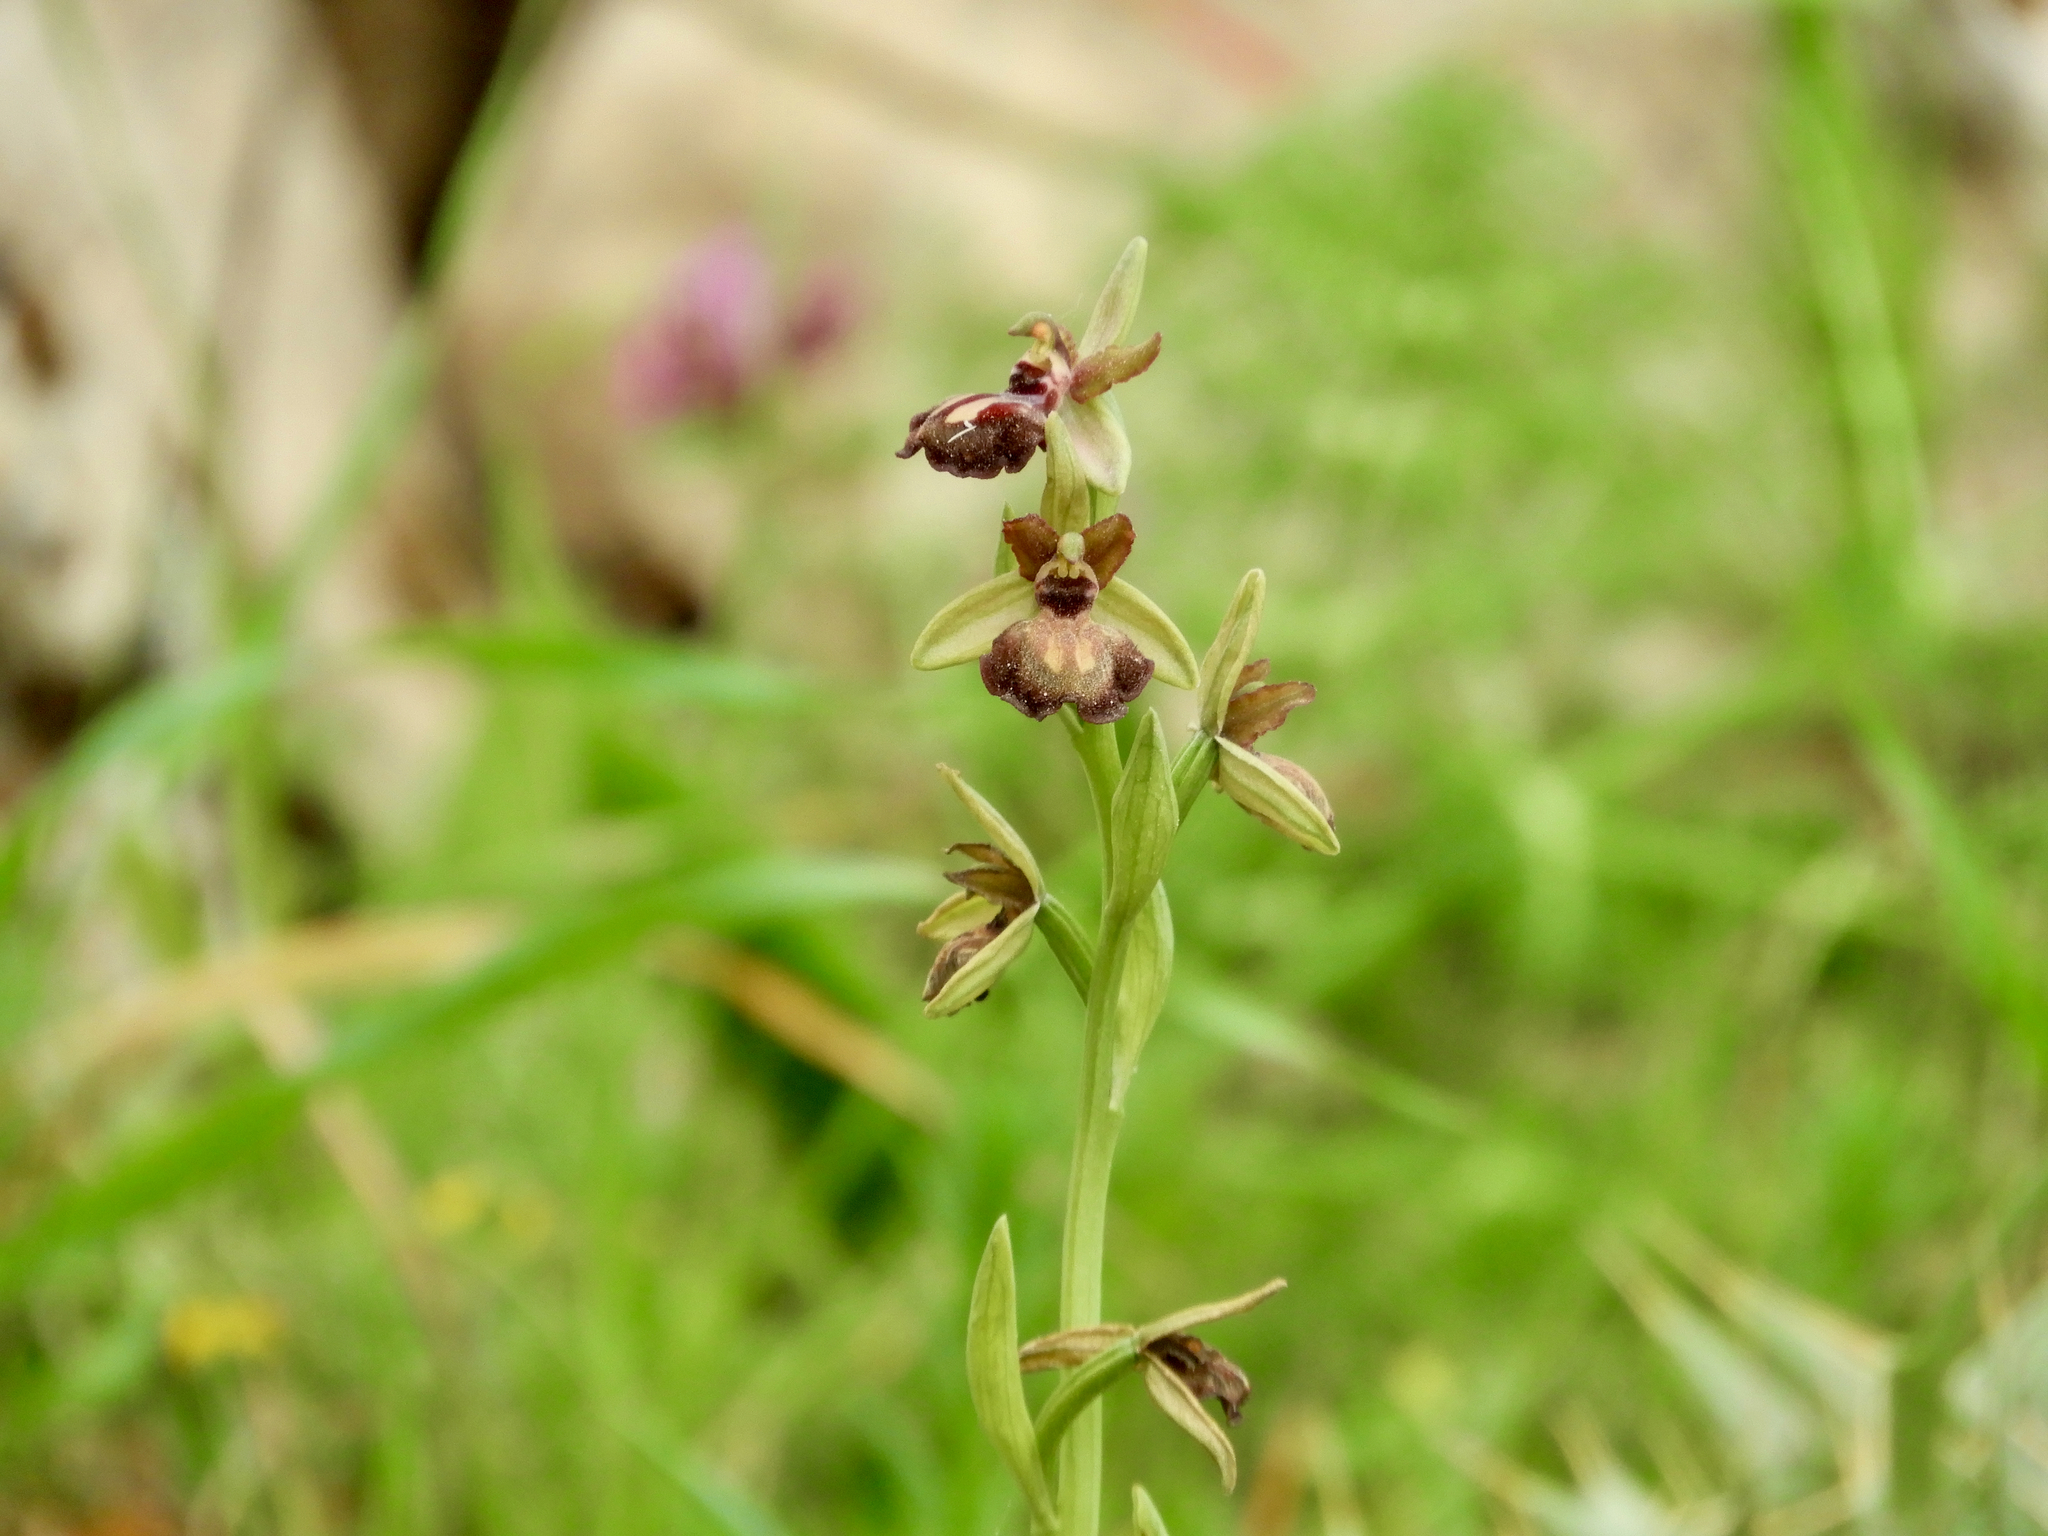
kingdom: Plantae
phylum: Tracheophyta
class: Liliopsida
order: Asparagales
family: Orchidaceae
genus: Ophrys
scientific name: Ophrys sphegodes
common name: Early spider-orchid
